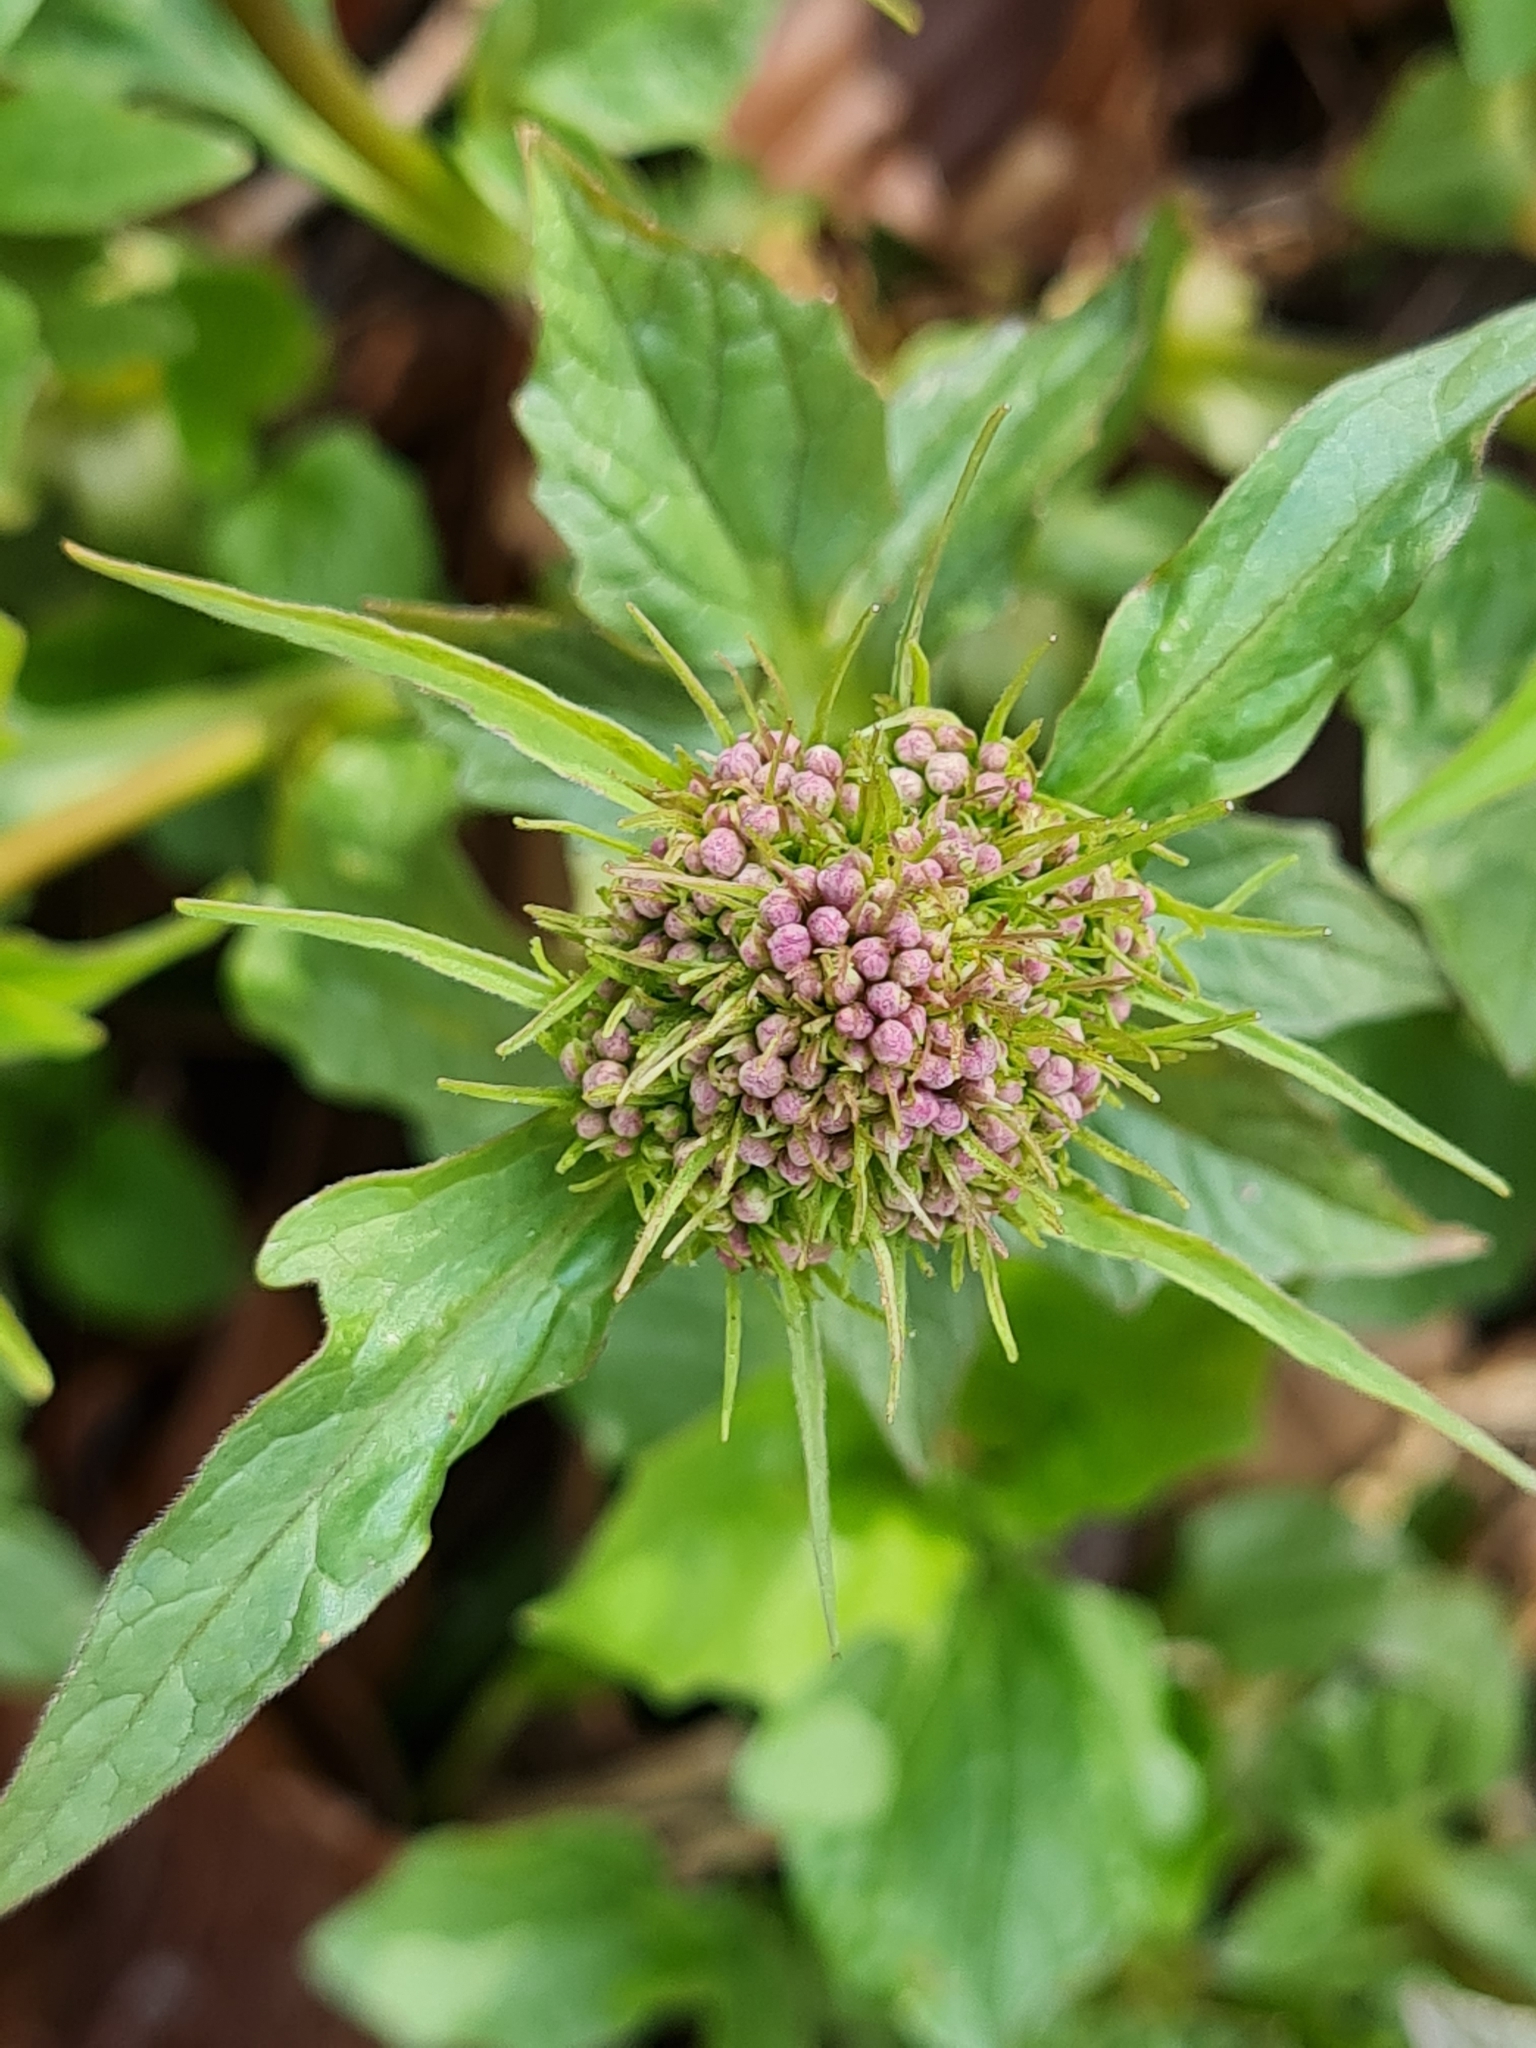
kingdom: Plantae
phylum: Tracheophyta
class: Magnoliopsida
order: Dipsacales
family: Caprifoliaceae
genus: Valeriana
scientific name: Valeriana tripteris
